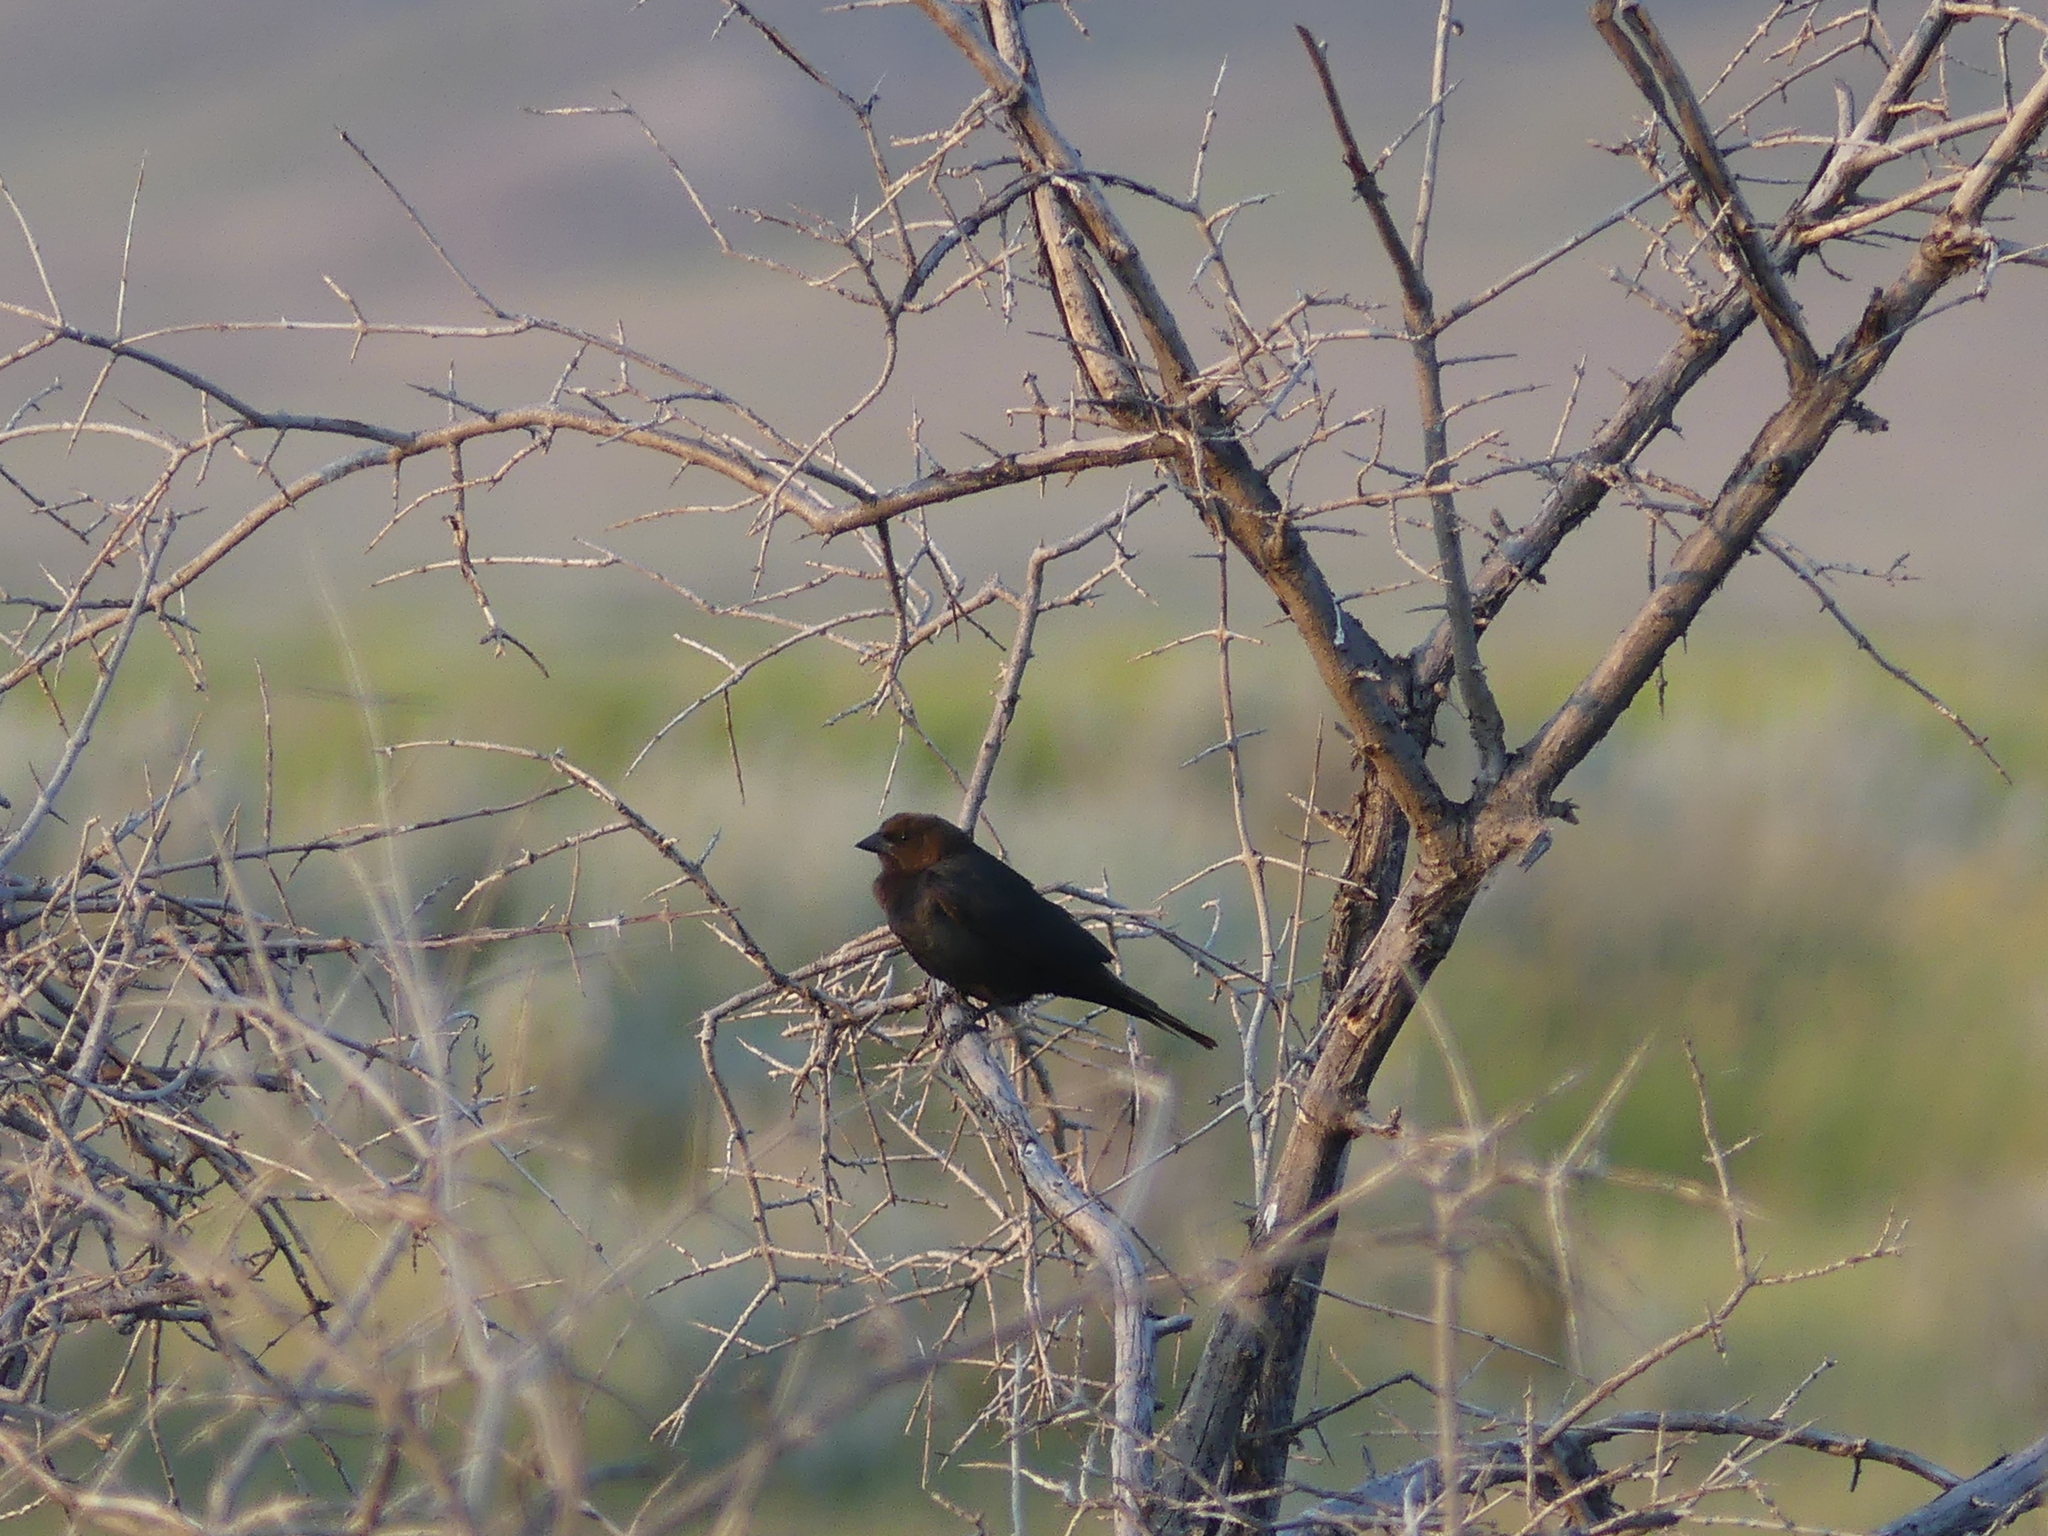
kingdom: Animalia
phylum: Chordata
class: Aves
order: Passeriformes
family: Icteridae
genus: Molothrus
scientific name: Molothrus ater
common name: Brown-headed cowbird
